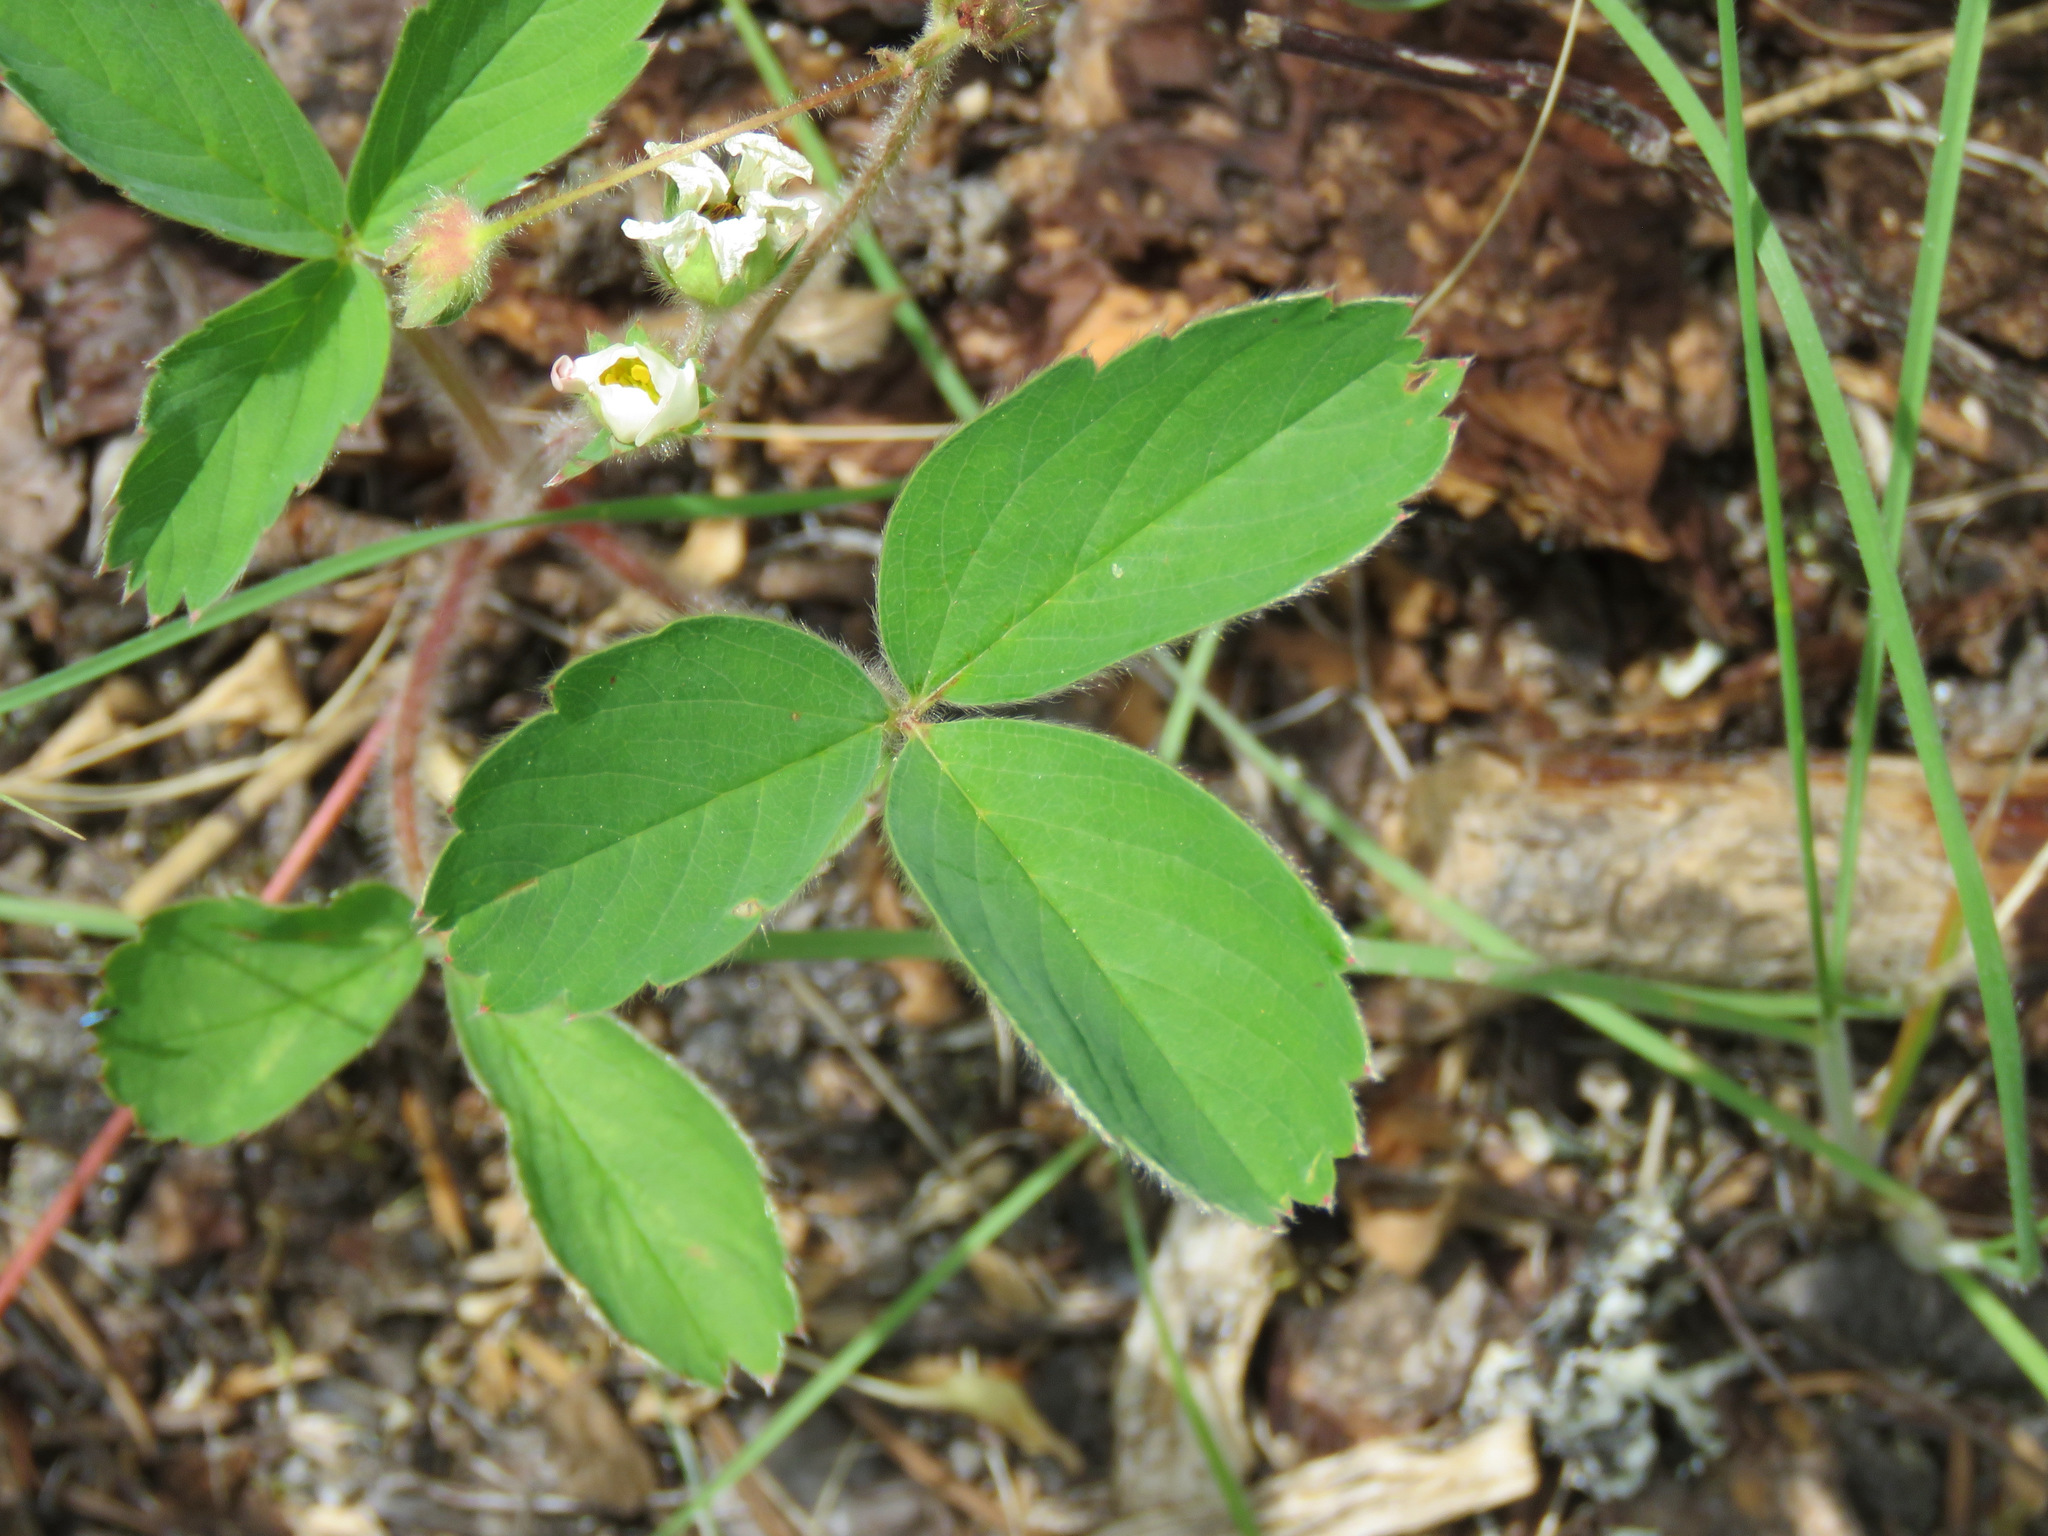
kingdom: Plantae
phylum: Tracheophyta
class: Magnoliopsida
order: Rosales
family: Rosaceae
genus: Fragaria
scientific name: Fragaria virginiana
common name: Thickleaved wild strawberry
